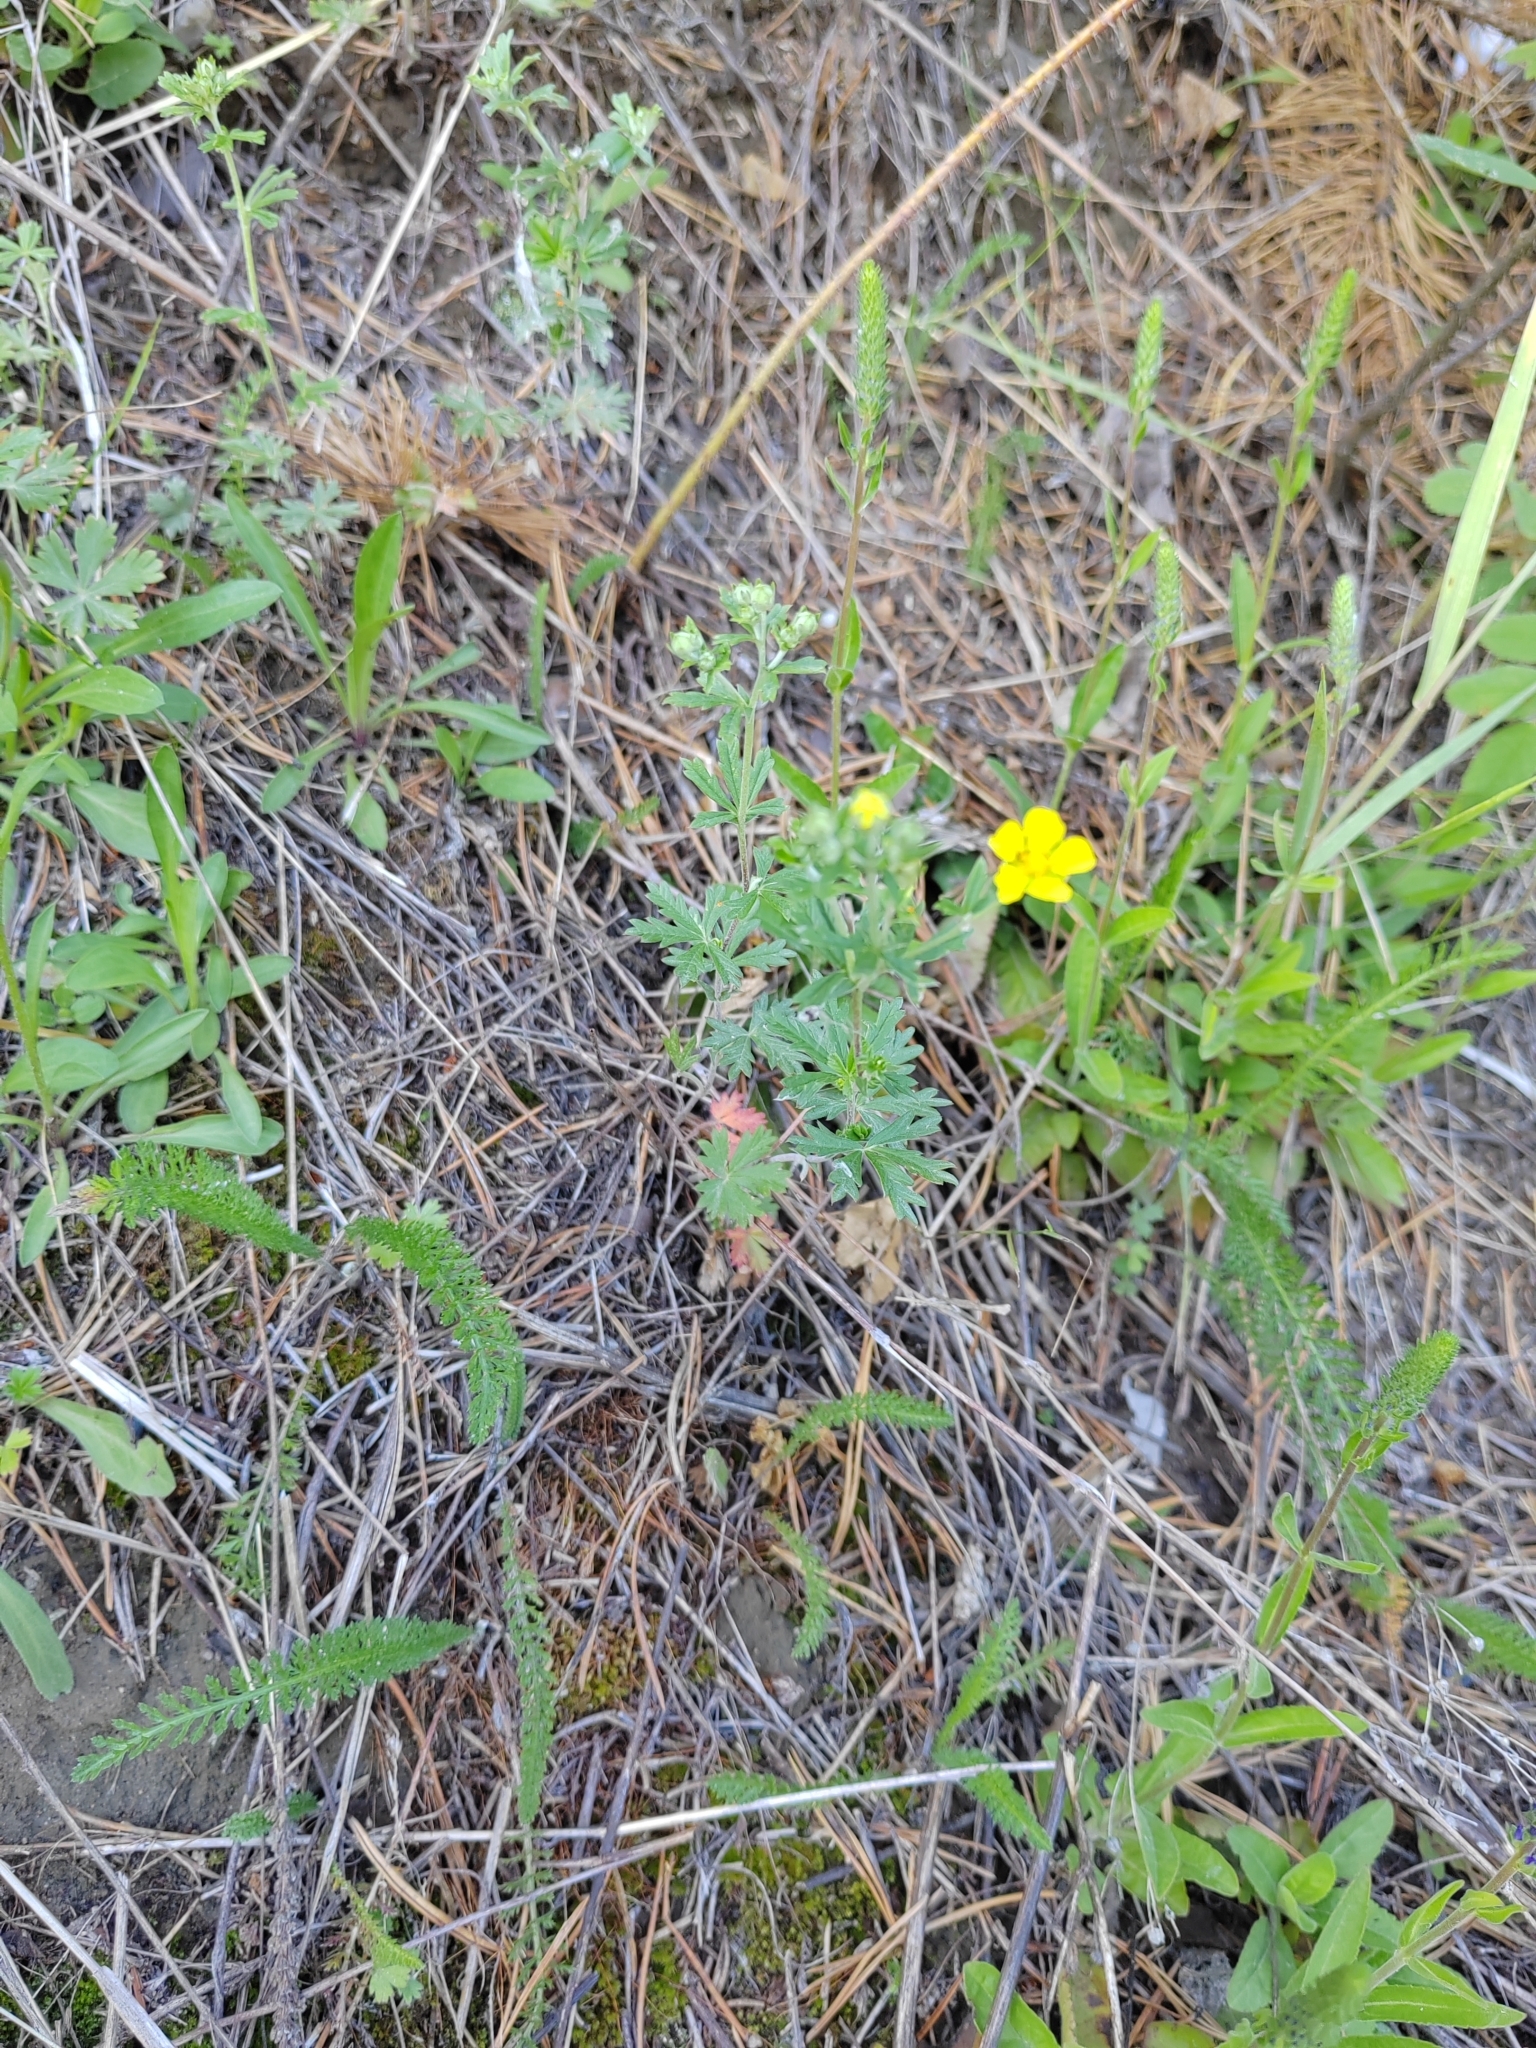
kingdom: Plantae
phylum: Tracheophyta
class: Magnoliopsida
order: Rosales
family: Rosaceae
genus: Potentilla
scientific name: Potentilla argentea
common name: Hoary cinquefoil
